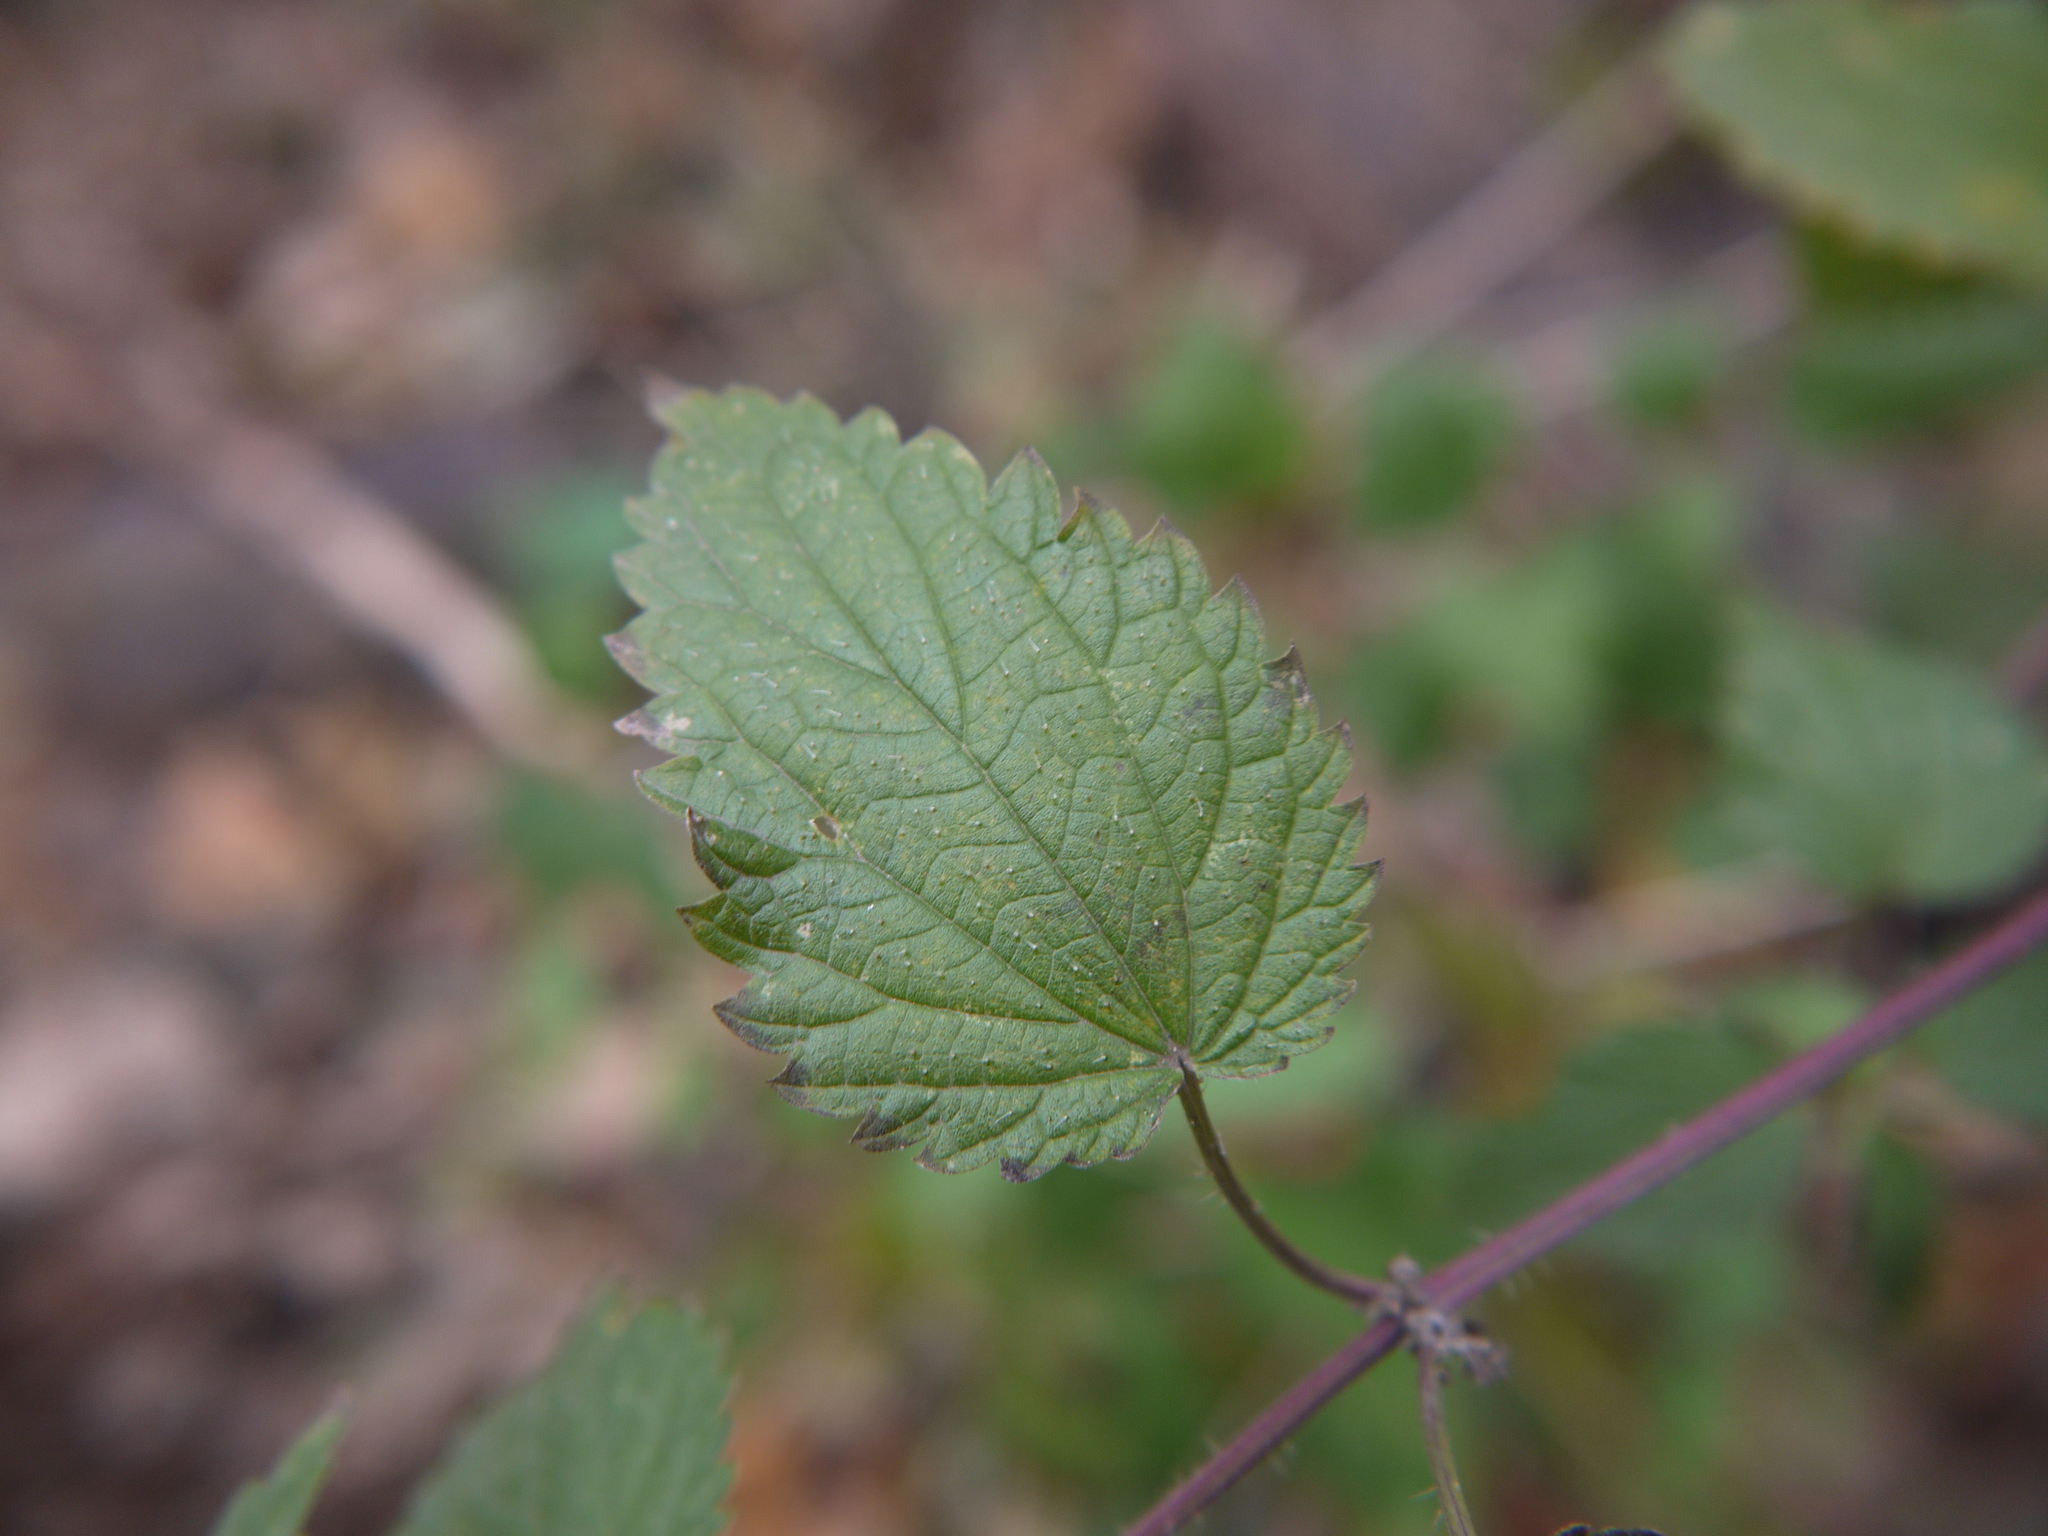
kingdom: Plantae
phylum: Tracheophyta
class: Magnoliopsida
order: Rosales
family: Urticaceae
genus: Urtica
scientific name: Urtica dioica
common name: Common nettle
